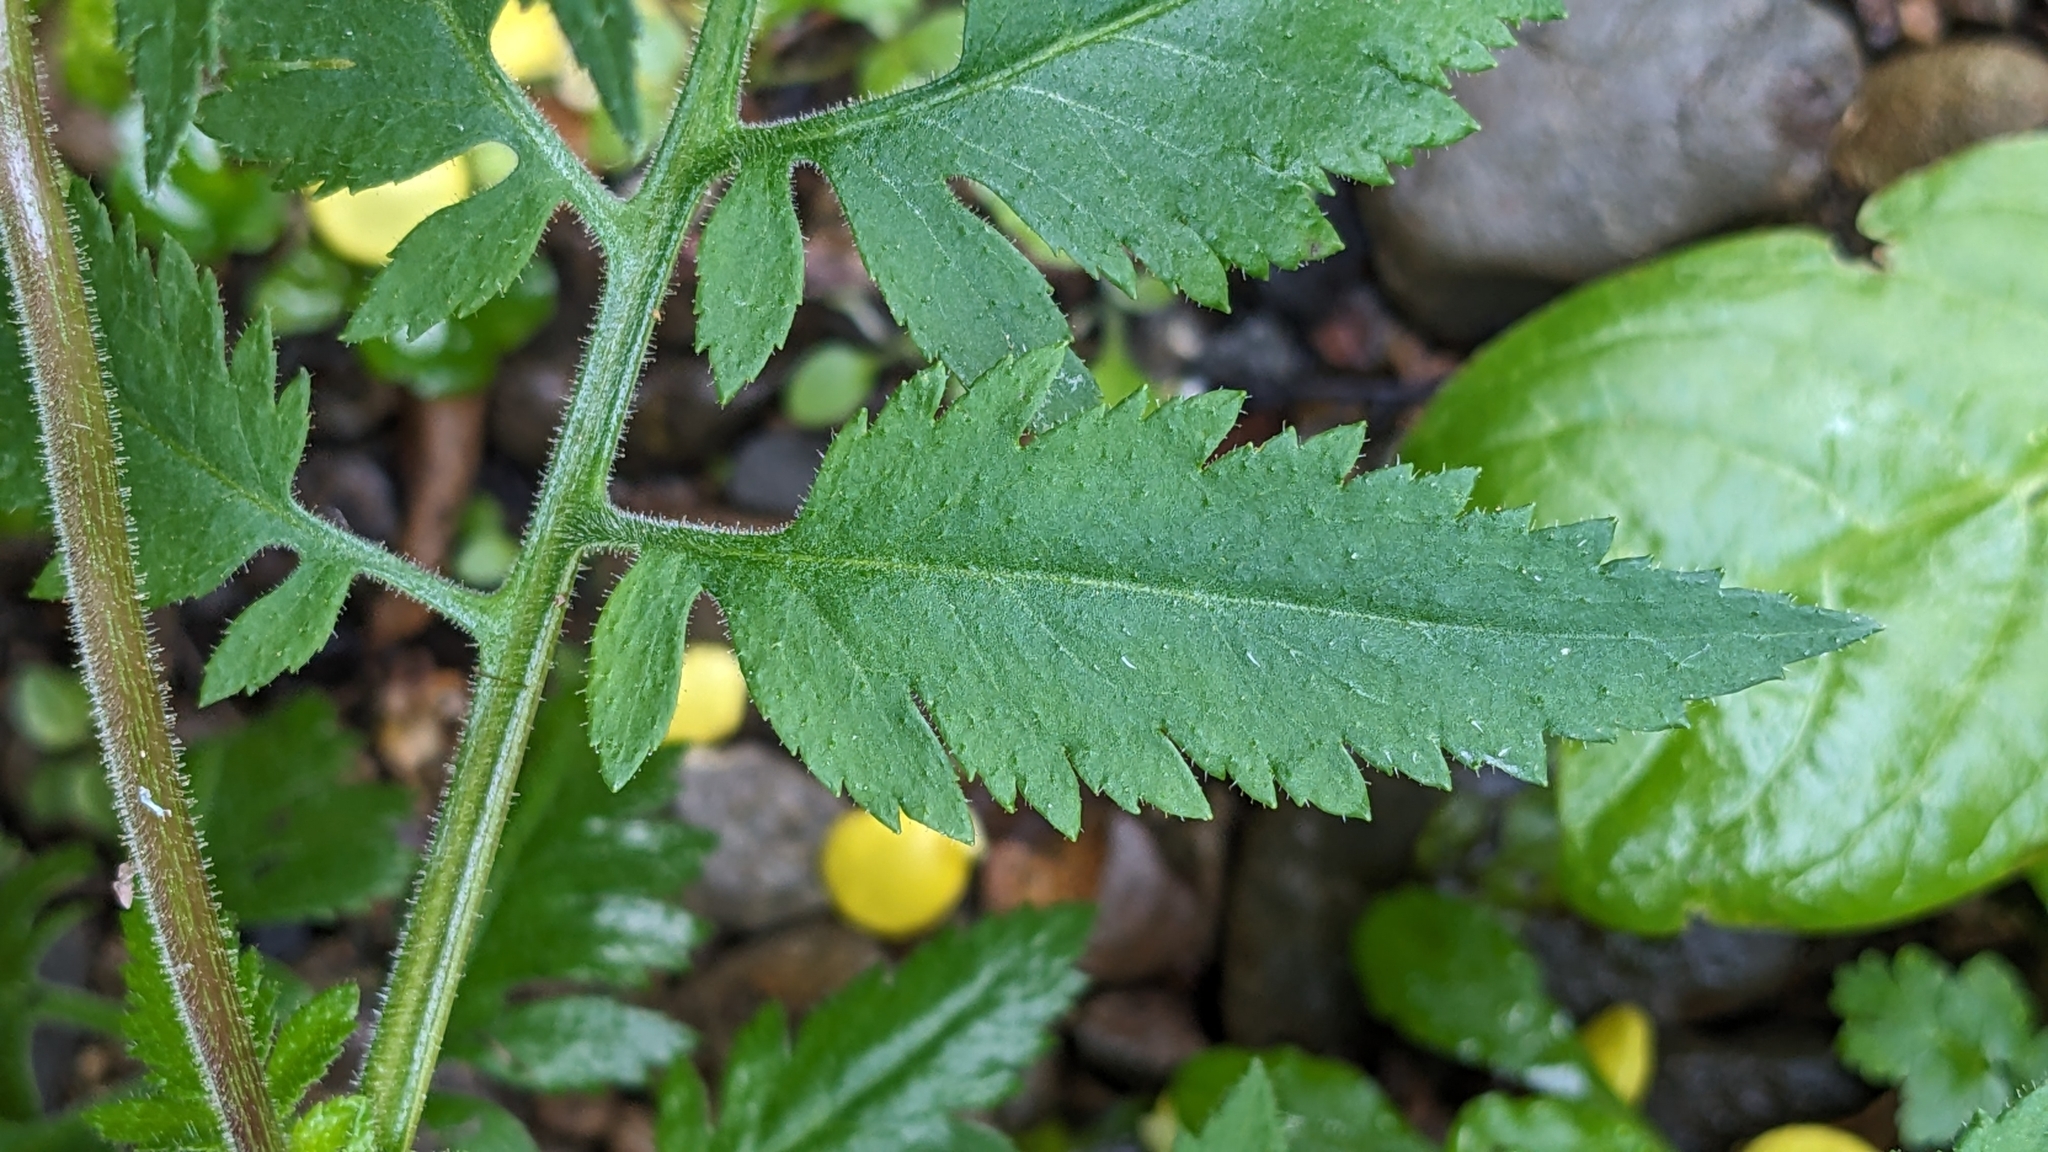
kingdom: Plantae
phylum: Tracheophyta
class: Magnoliopsida
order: Lamiales
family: Calceolariaceae
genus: Calceolaria
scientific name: Calceolaria tripartita
